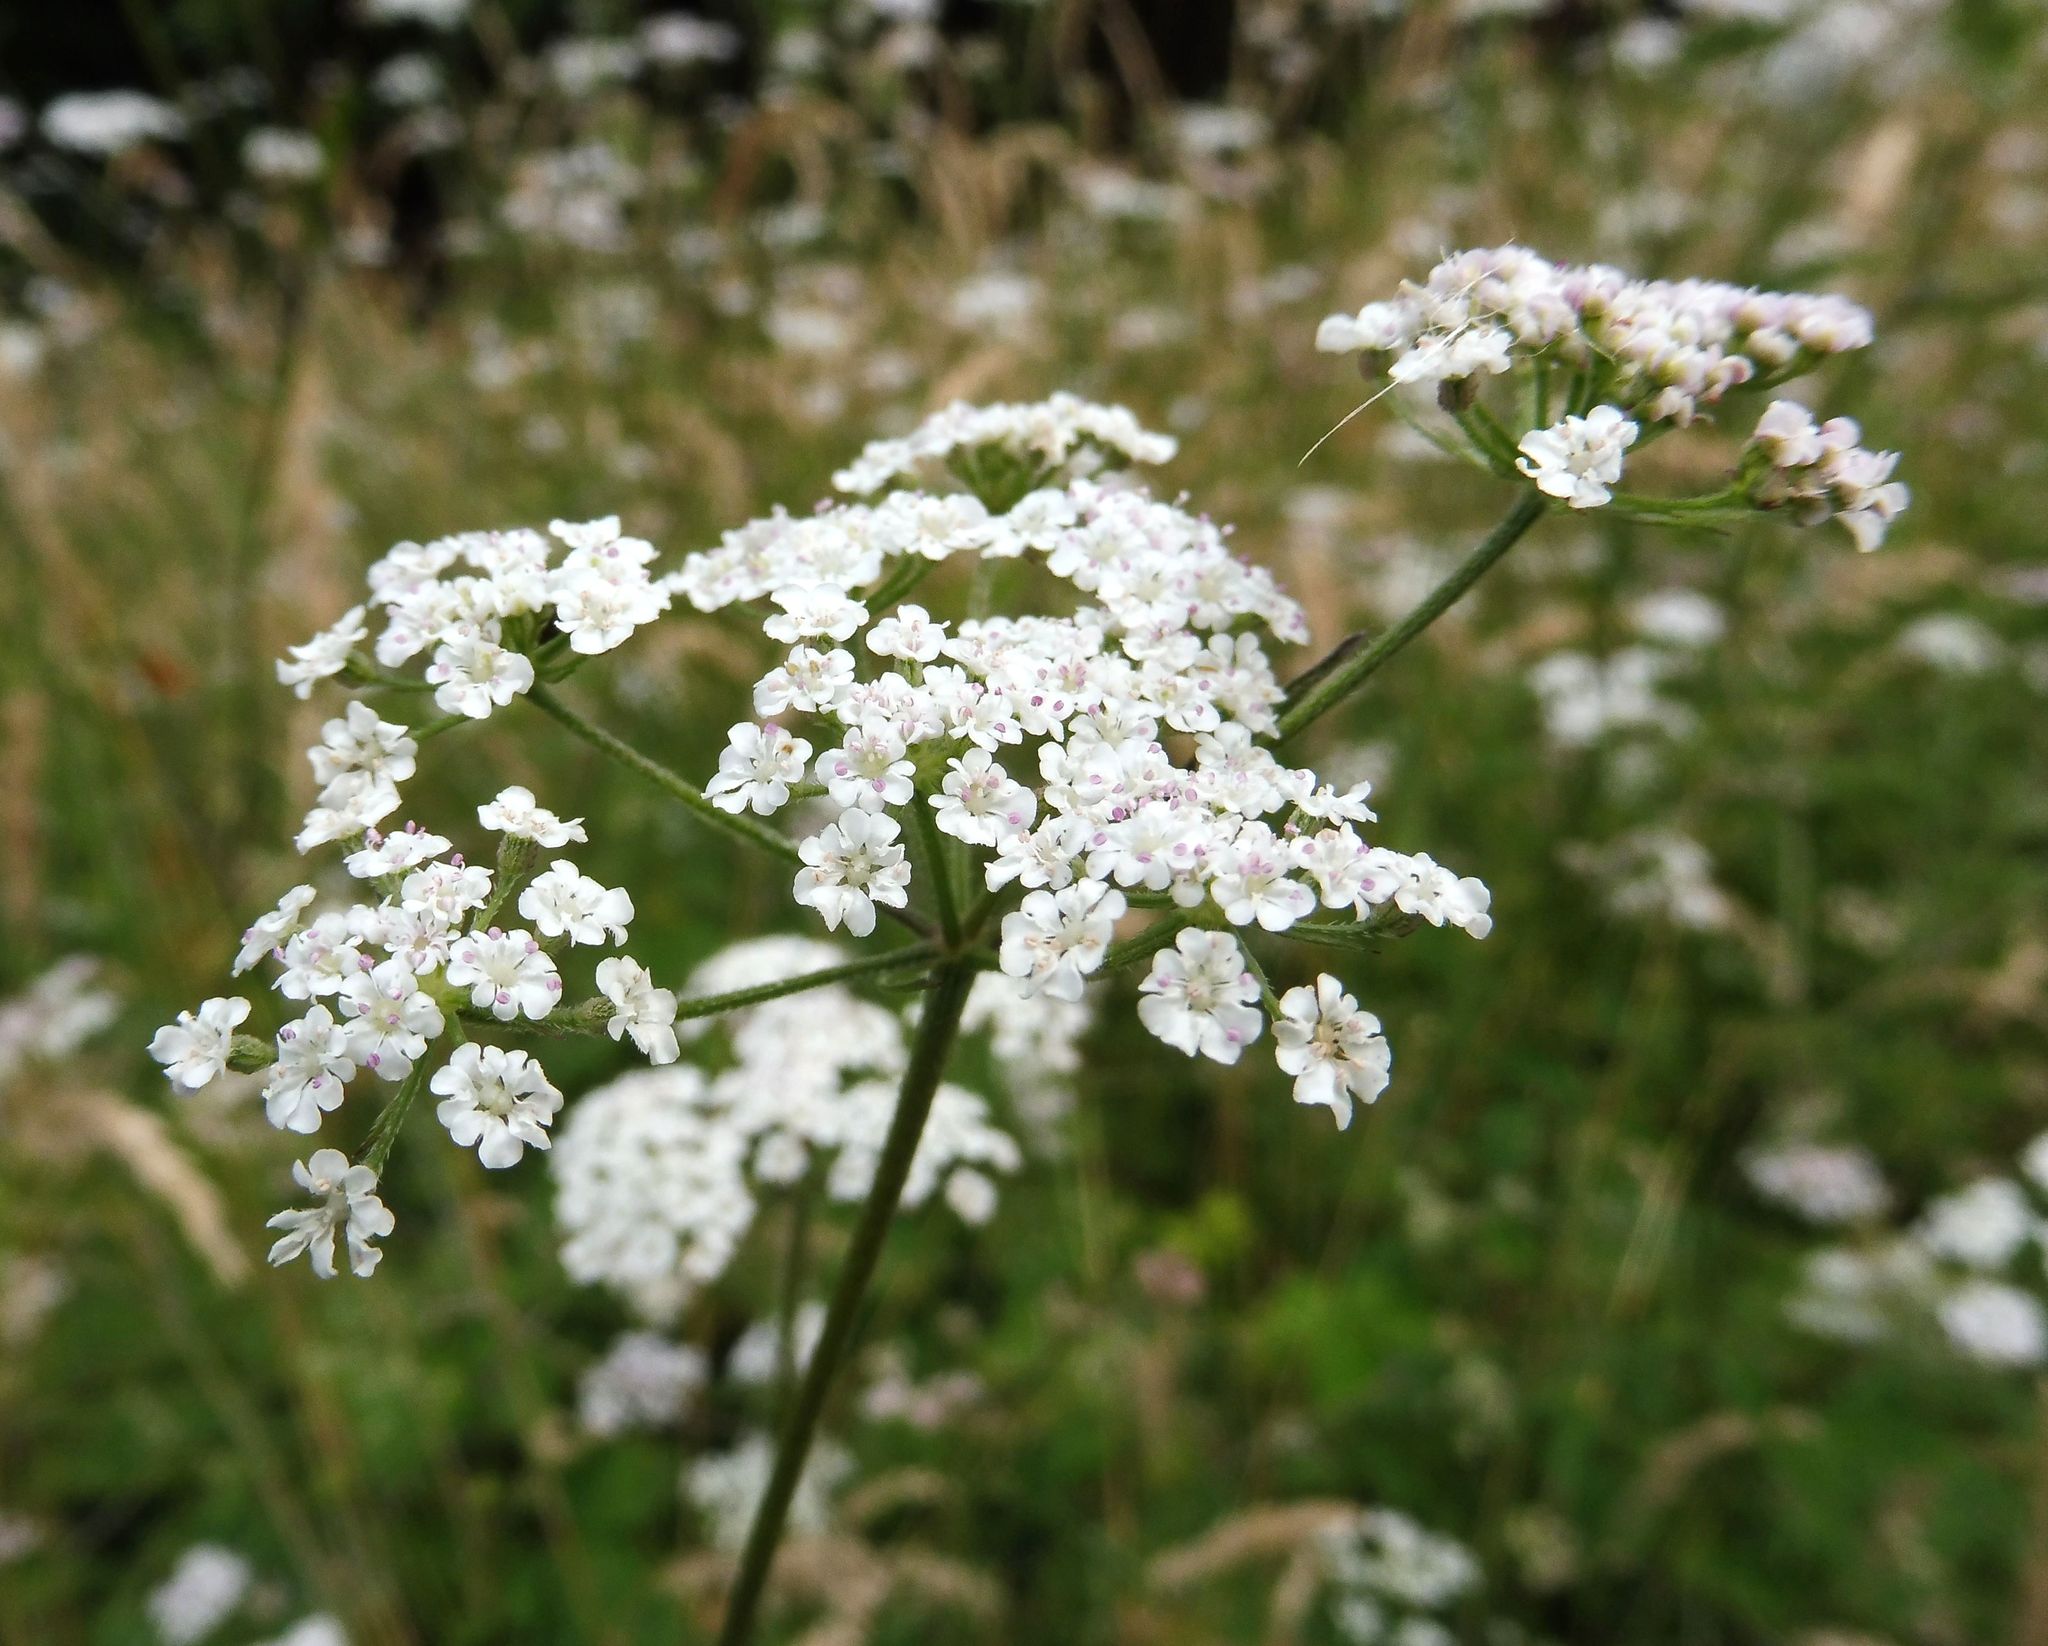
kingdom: Plantae
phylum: Tracheophyta
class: Magnoliopsida
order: Apiales
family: Apiaceae
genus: Torilis
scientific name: Torilis japonica
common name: Upright hedge-parsley
